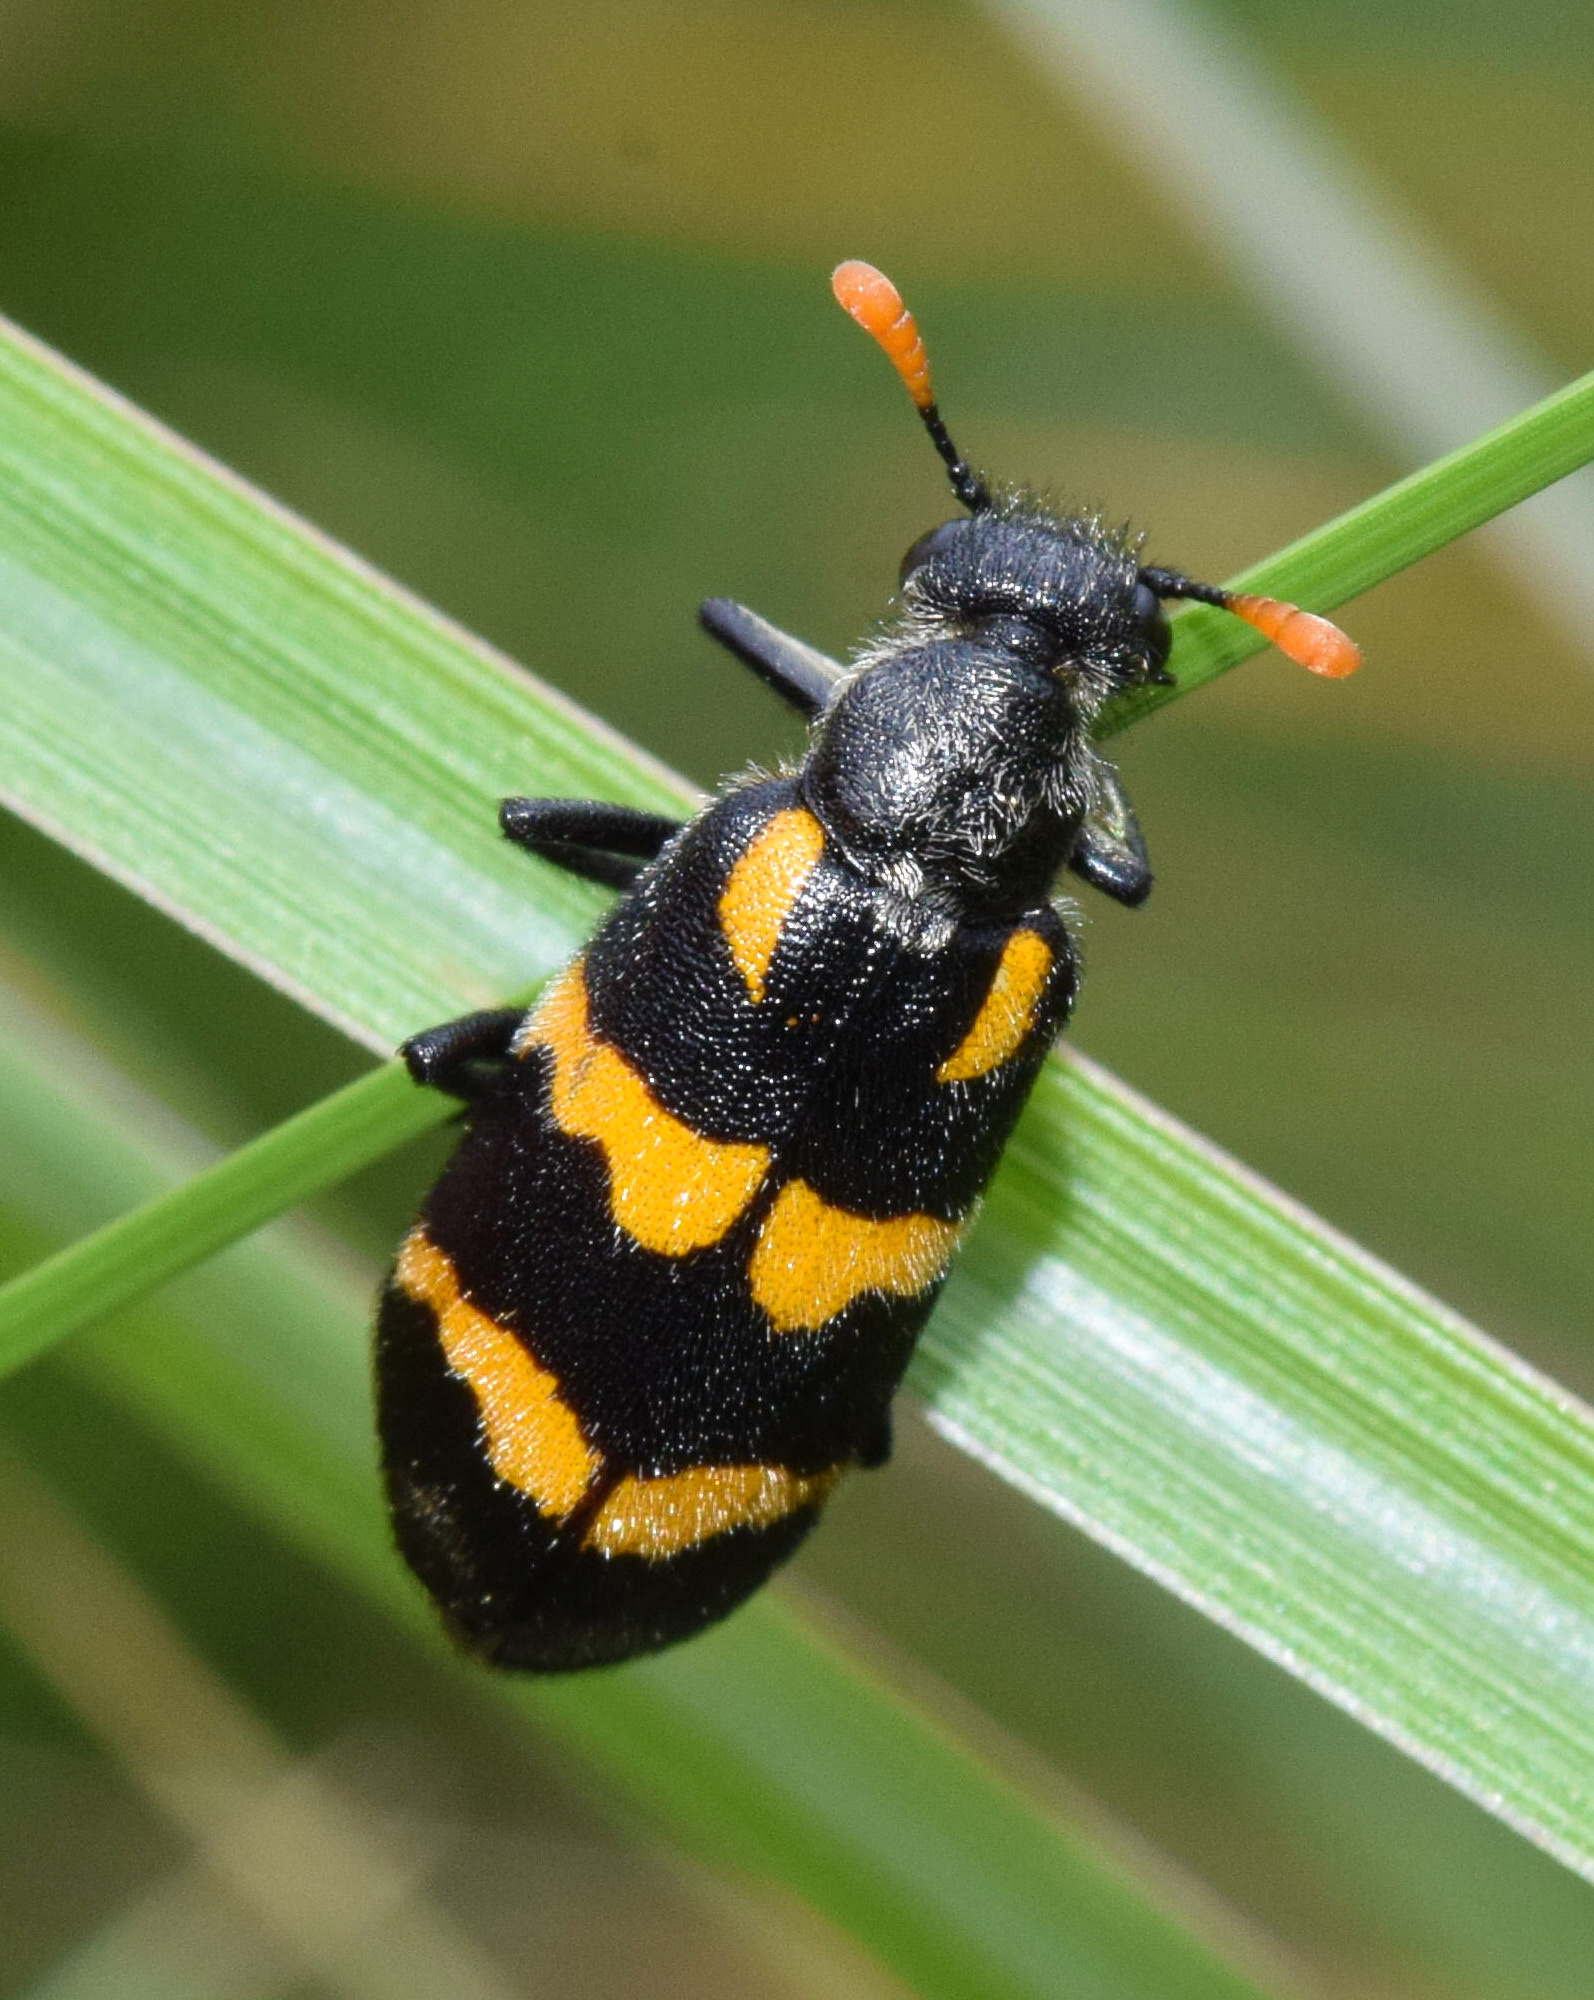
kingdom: Animalia
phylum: Arthropoda
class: Insecta
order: Coleoptera
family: Meloidae
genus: Meloe
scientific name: Meloe lunata
